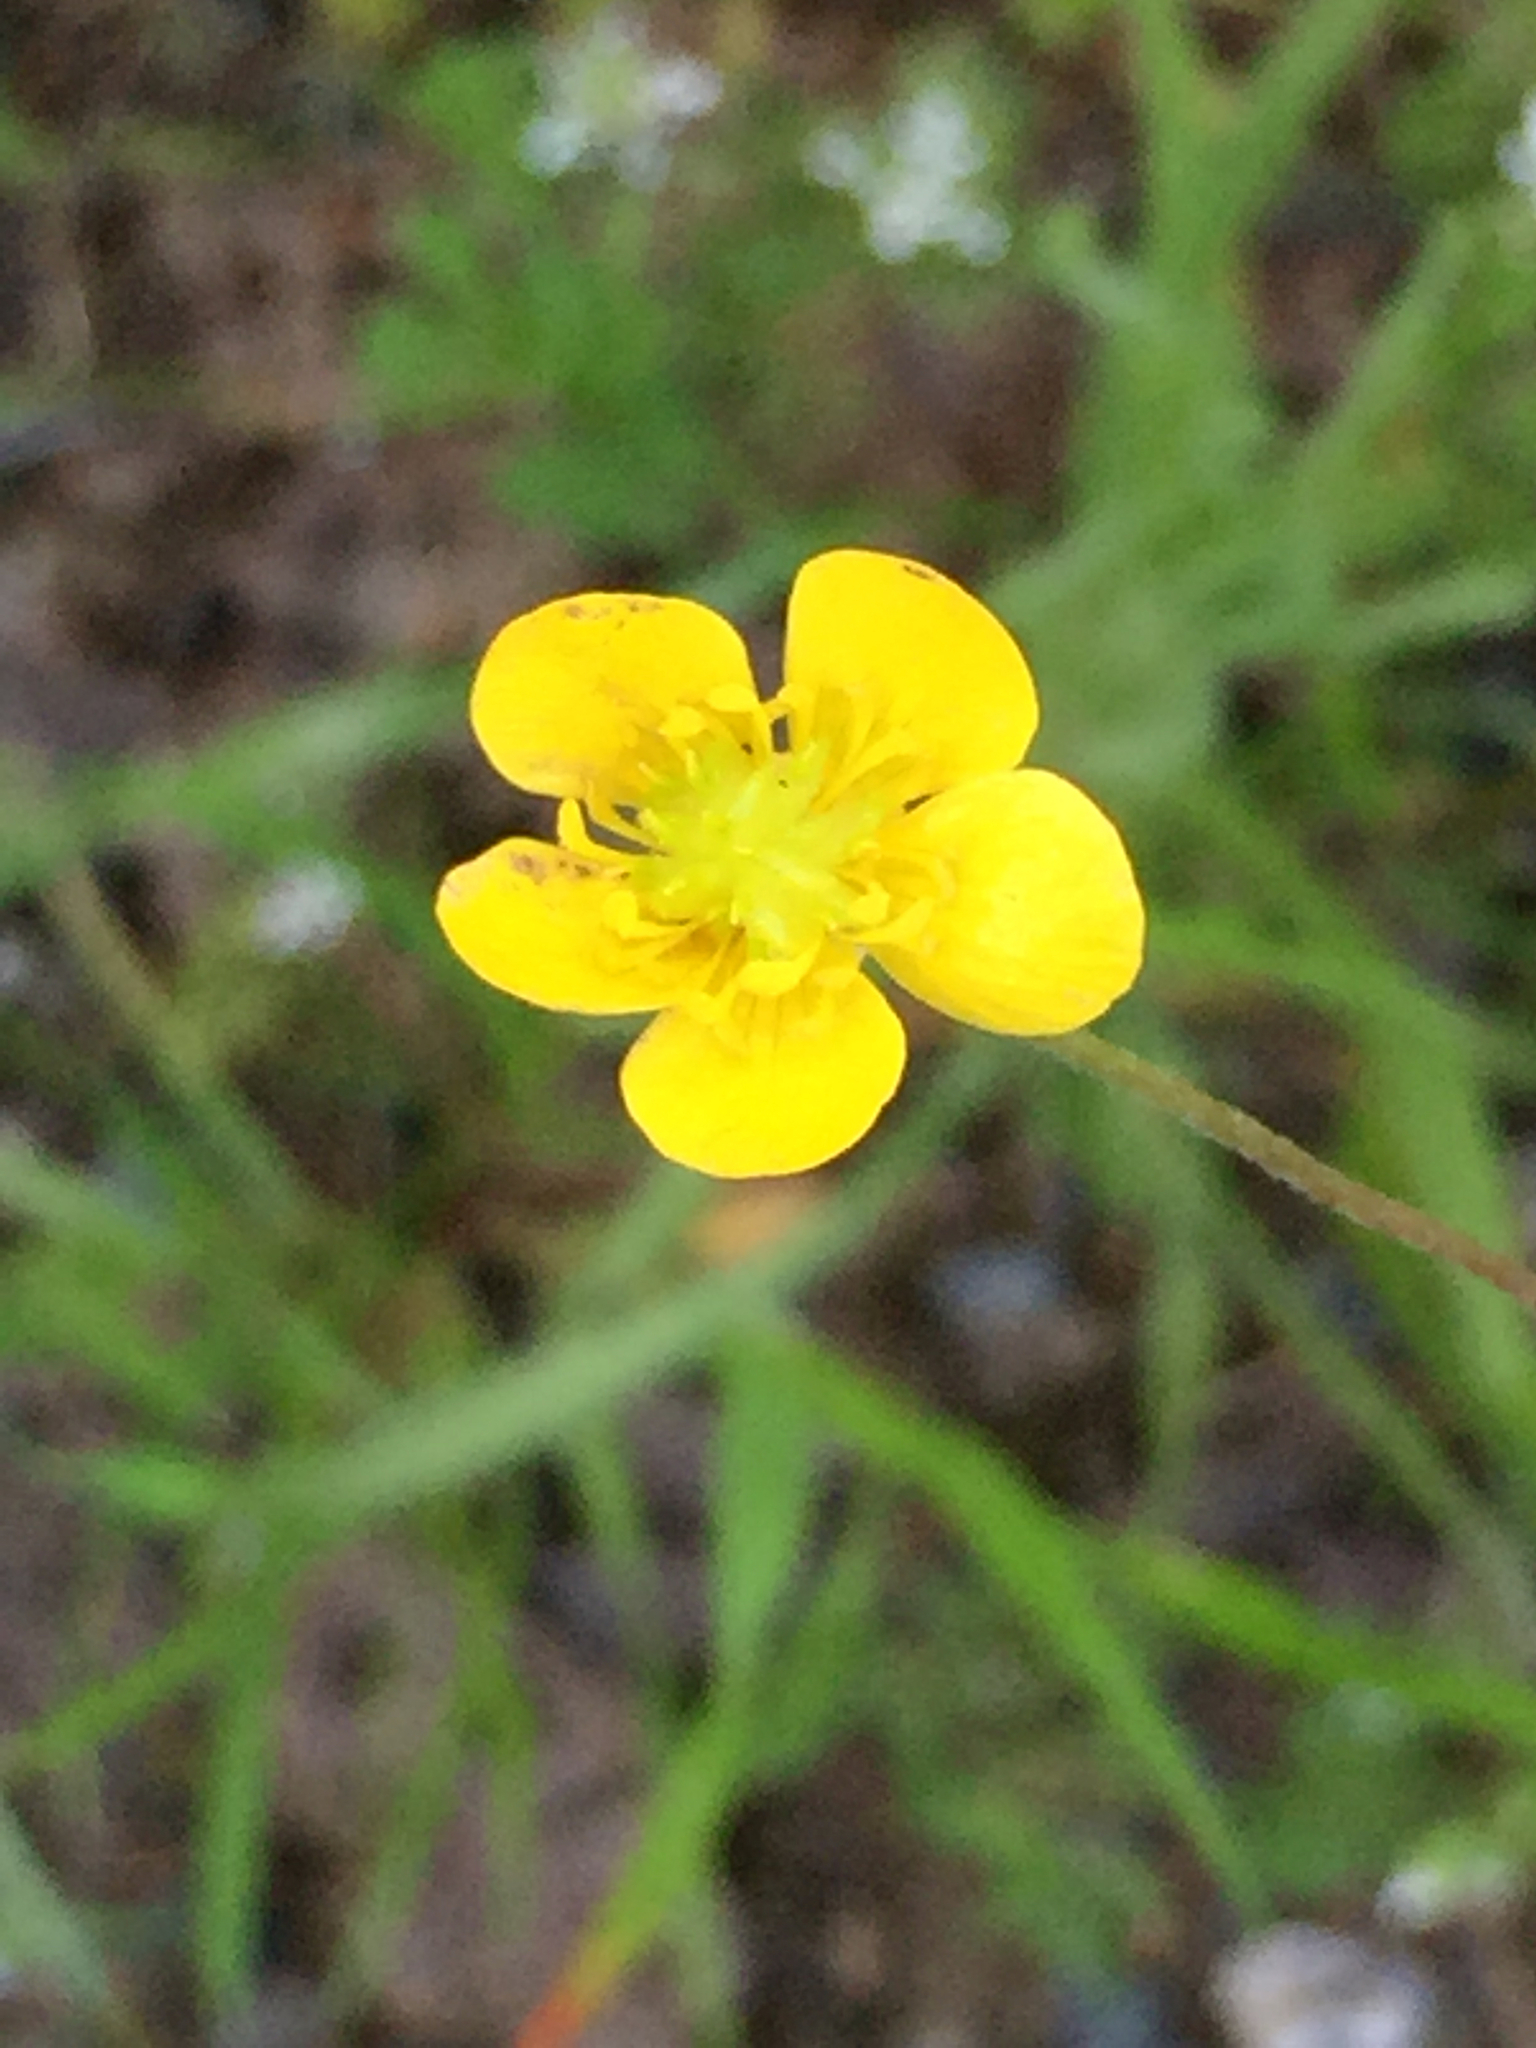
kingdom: Plantae
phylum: Tracheophyta
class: Magnoliopsida
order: Ranunculales
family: Ranunculaceae
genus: Ranunculus
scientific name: Ranunculus occidentalis
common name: Western buttercup
